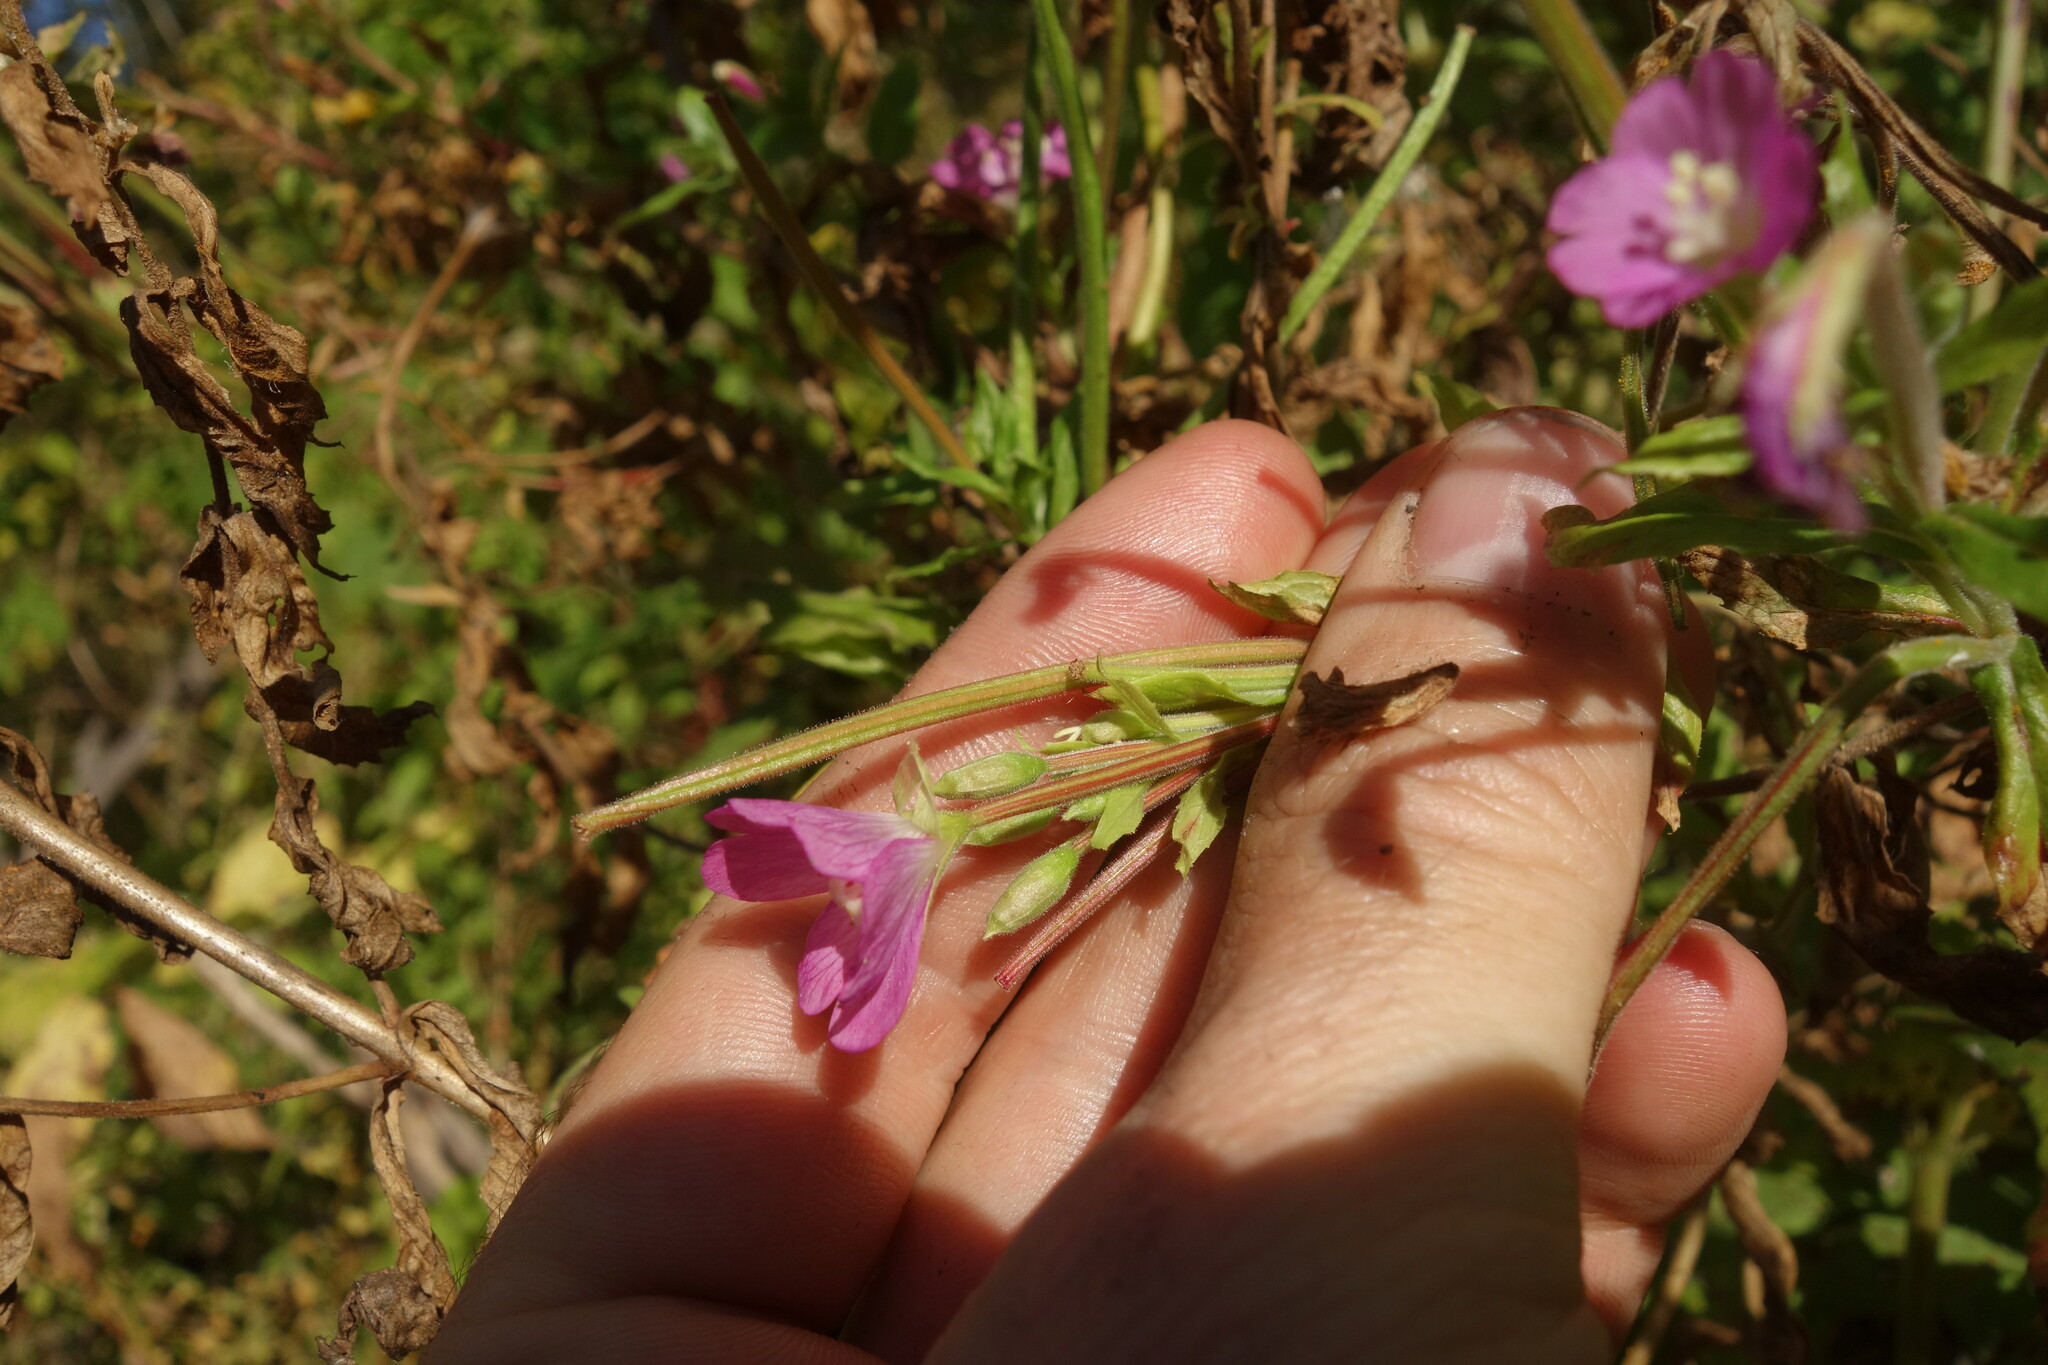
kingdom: Plantae
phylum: Tracheophyta
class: Magnoliopsida
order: Myrtales
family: Onagraceae
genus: Epilobium
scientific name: Epilobium hirsutum
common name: Great willowherb
